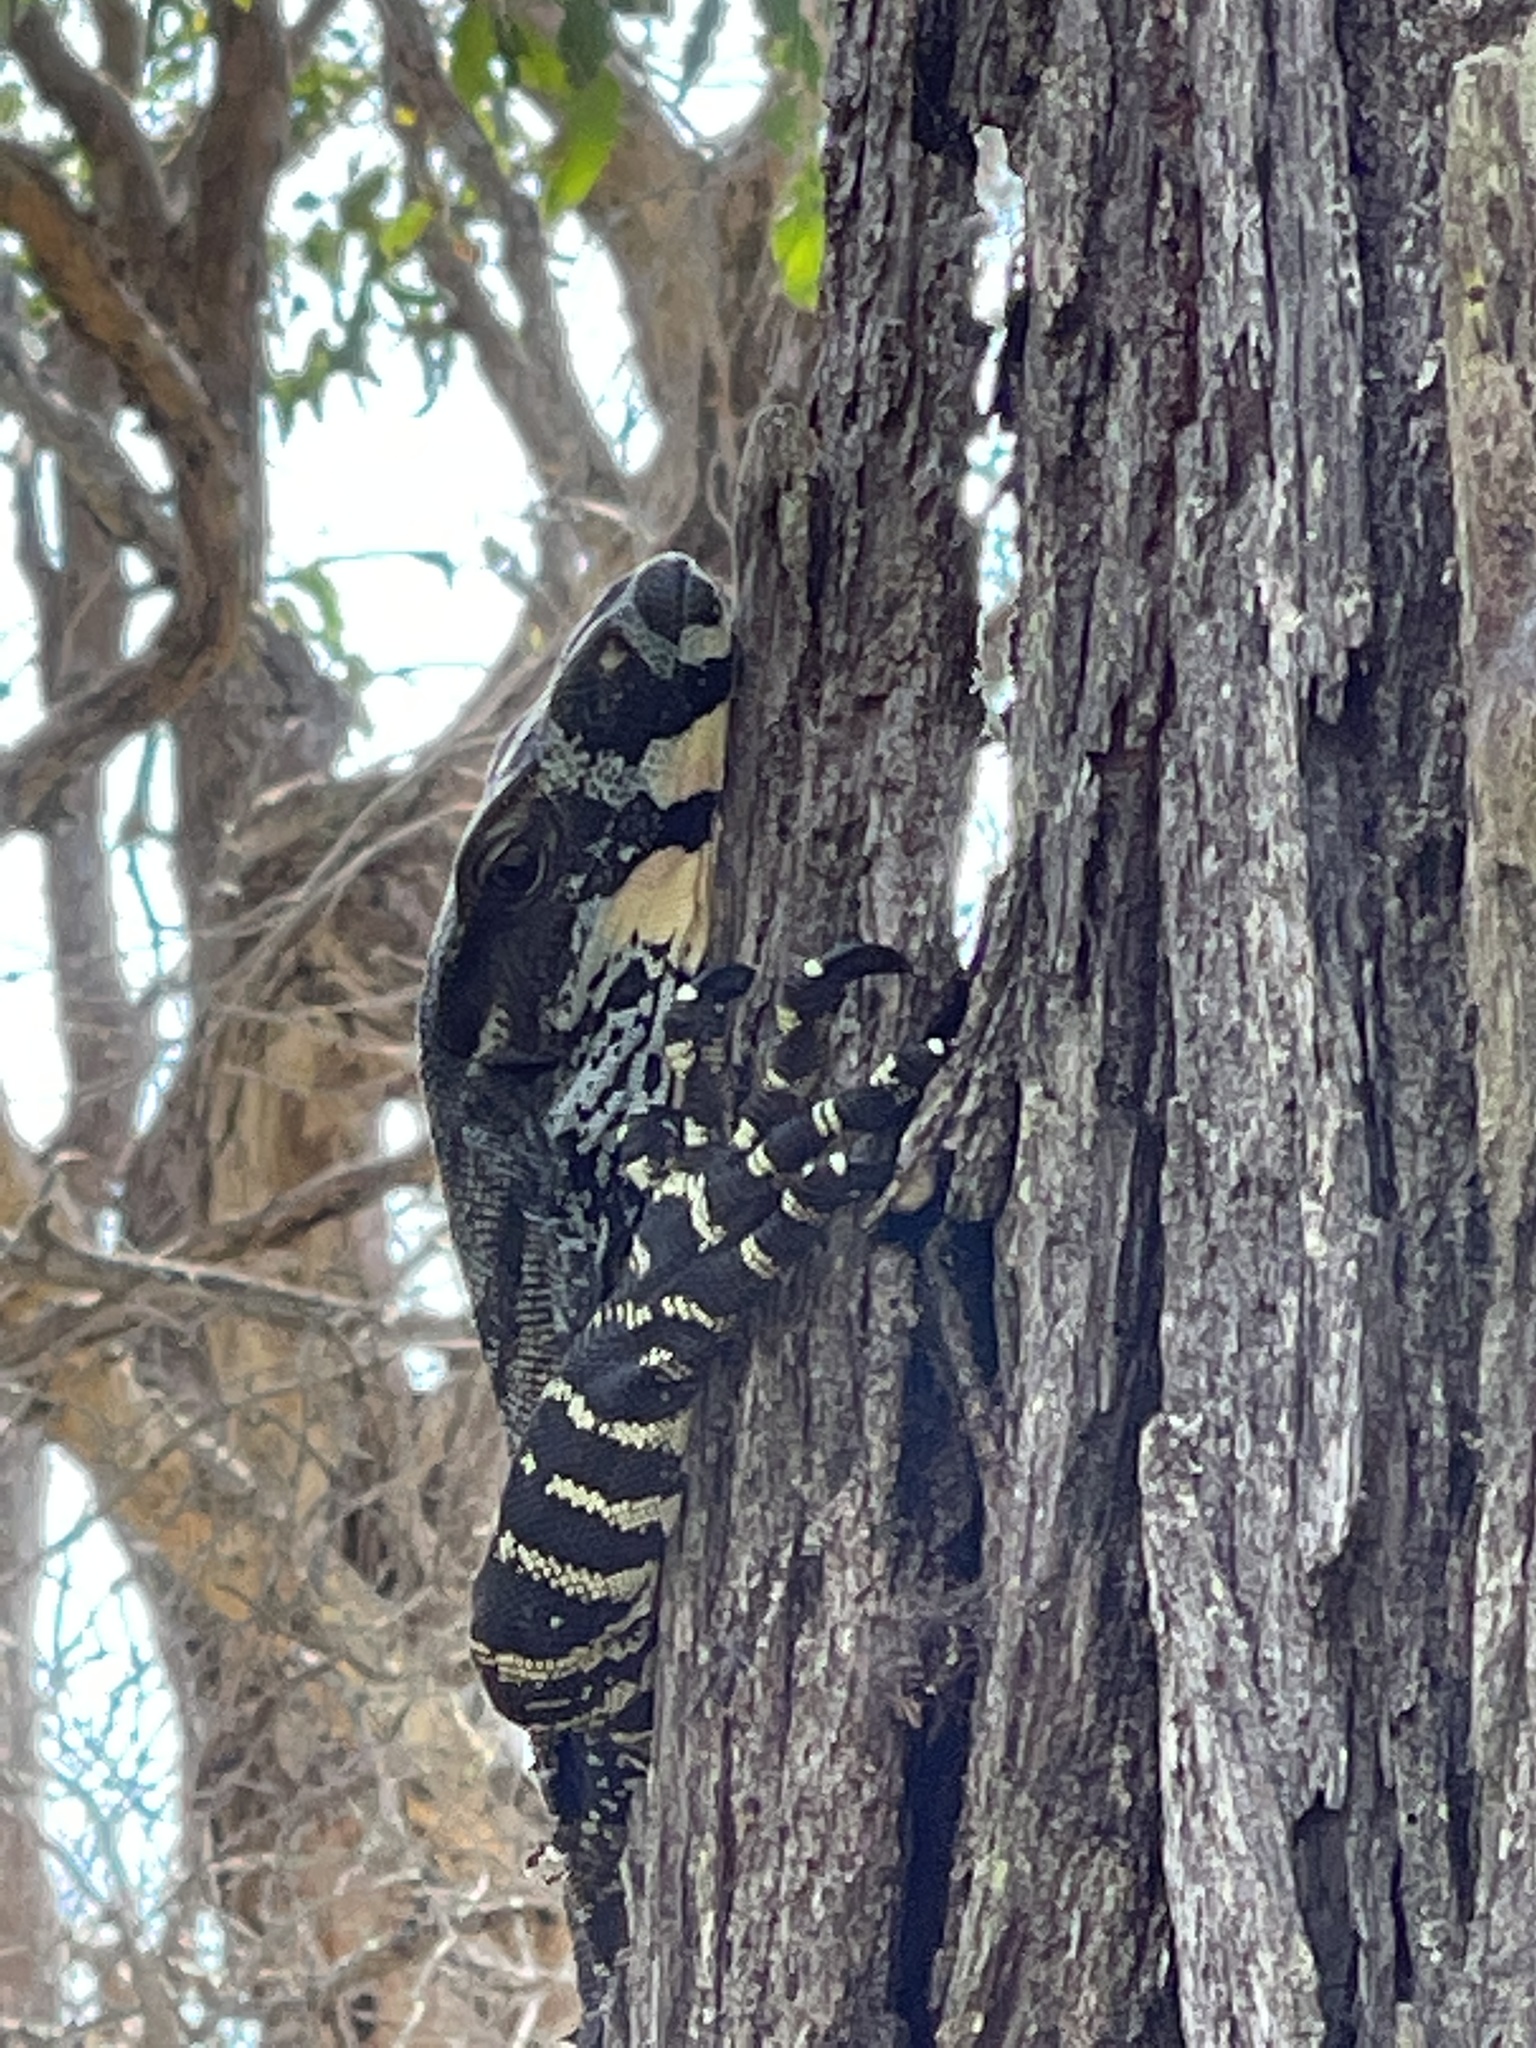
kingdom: Animalia
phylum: Chordata
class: Squamata
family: Varanidae
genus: Varanus
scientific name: Varanus varius
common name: Lace monitor
